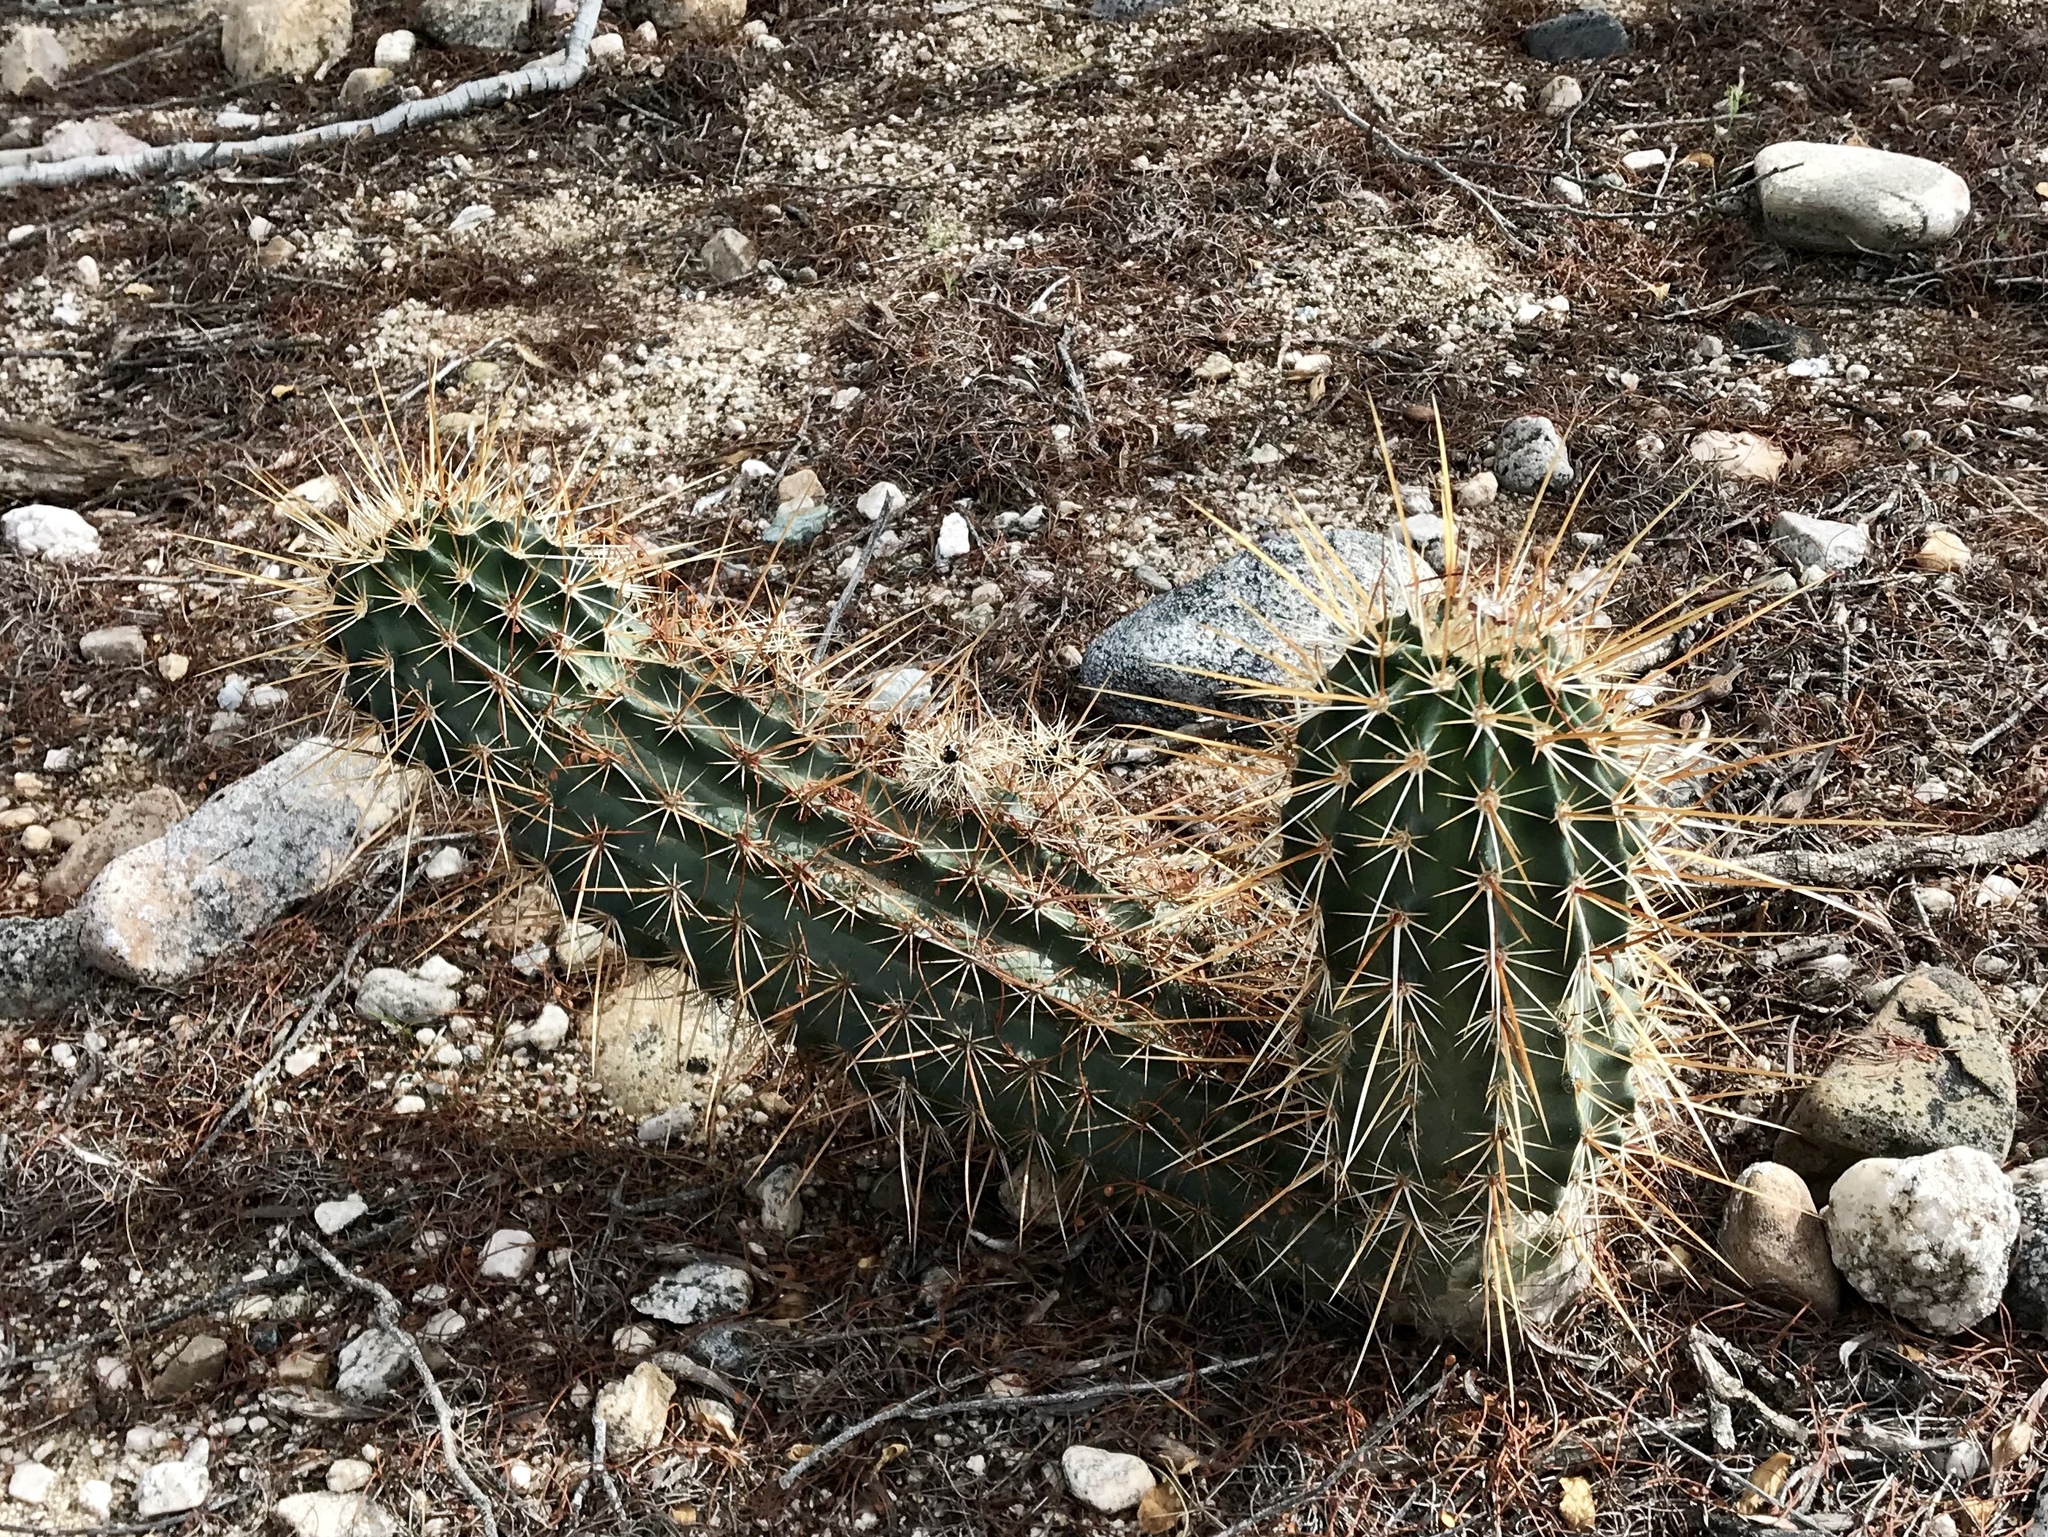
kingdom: Plantae
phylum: Tracheophyta
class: Magnoliopsida
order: Caryophyllales
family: Cactaceae
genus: Echinocereus
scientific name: Echinocereus fasciculatus
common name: Bundle hedgehog
